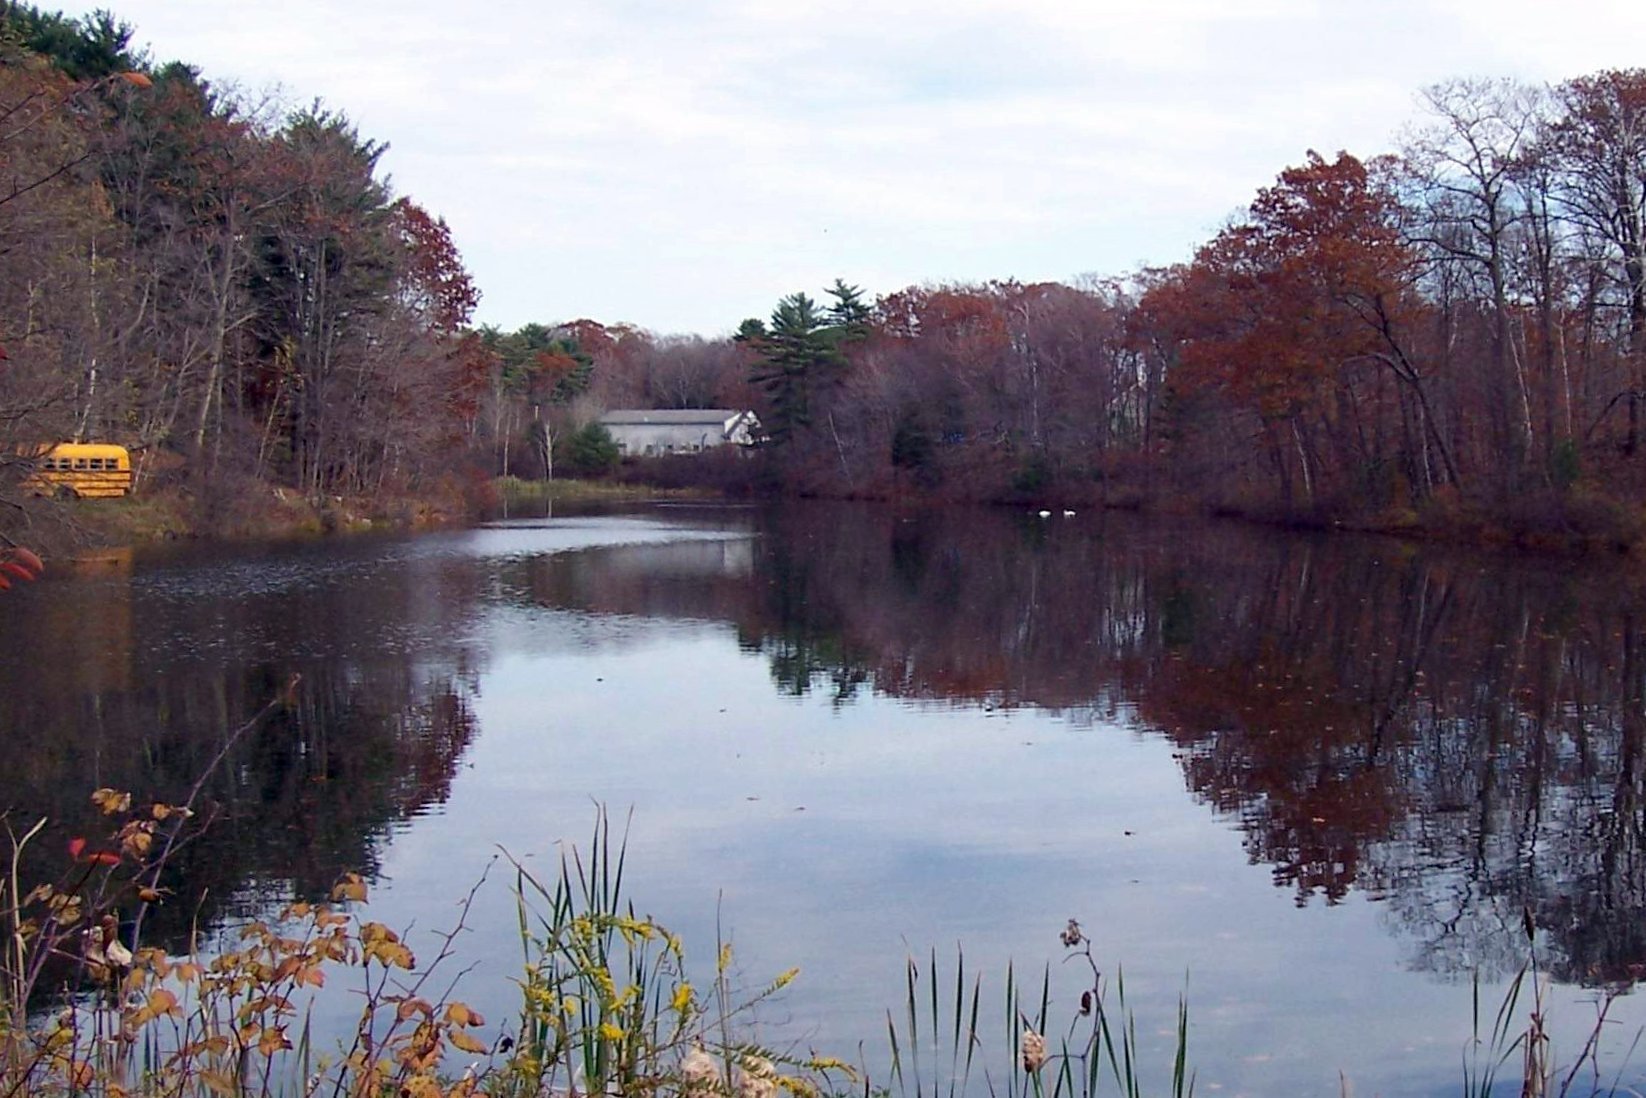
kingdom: Animalia
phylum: Chordata
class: Aves
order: Anseriformes
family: Anatidae
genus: Cygnus
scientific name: Cygnus olor
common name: Mute swan
